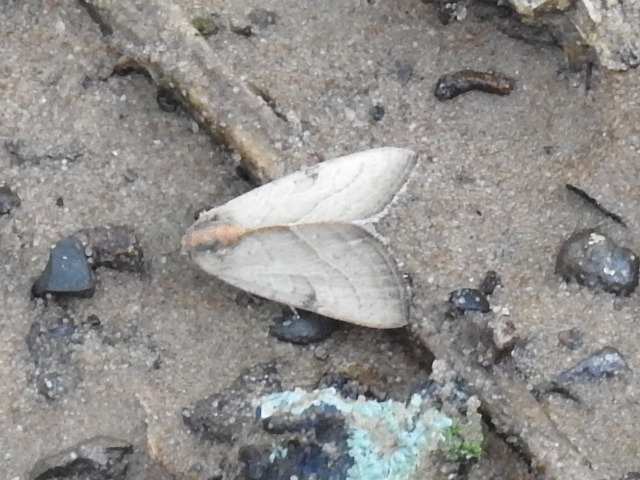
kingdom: Animalia
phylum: Arthropoda
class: Insecta
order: Lepidoptera
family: Noctuidae
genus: Galgula
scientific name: Galgula partita
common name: Wedgeling
